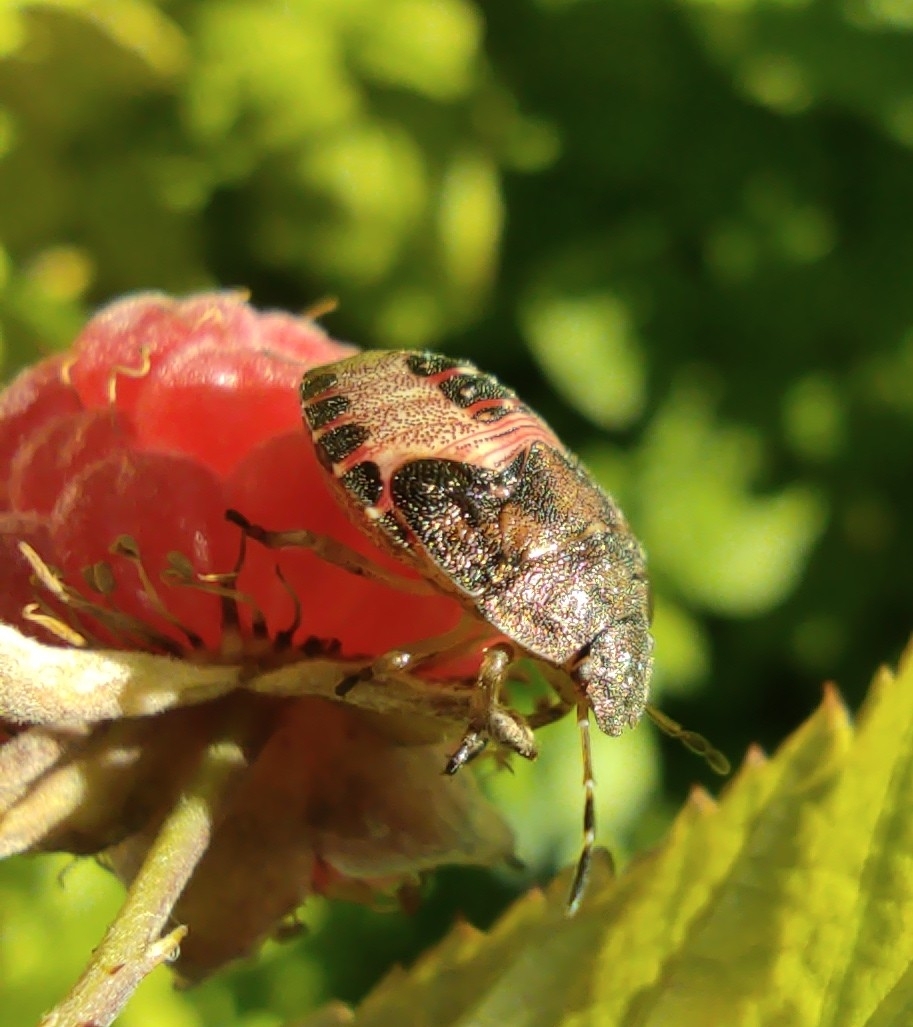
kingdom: Animalia
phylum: Arthropoda
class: Insecta
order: Hemiptera
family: Pentatomidae
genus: Holcostethus
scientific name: Holcostethus strictus
